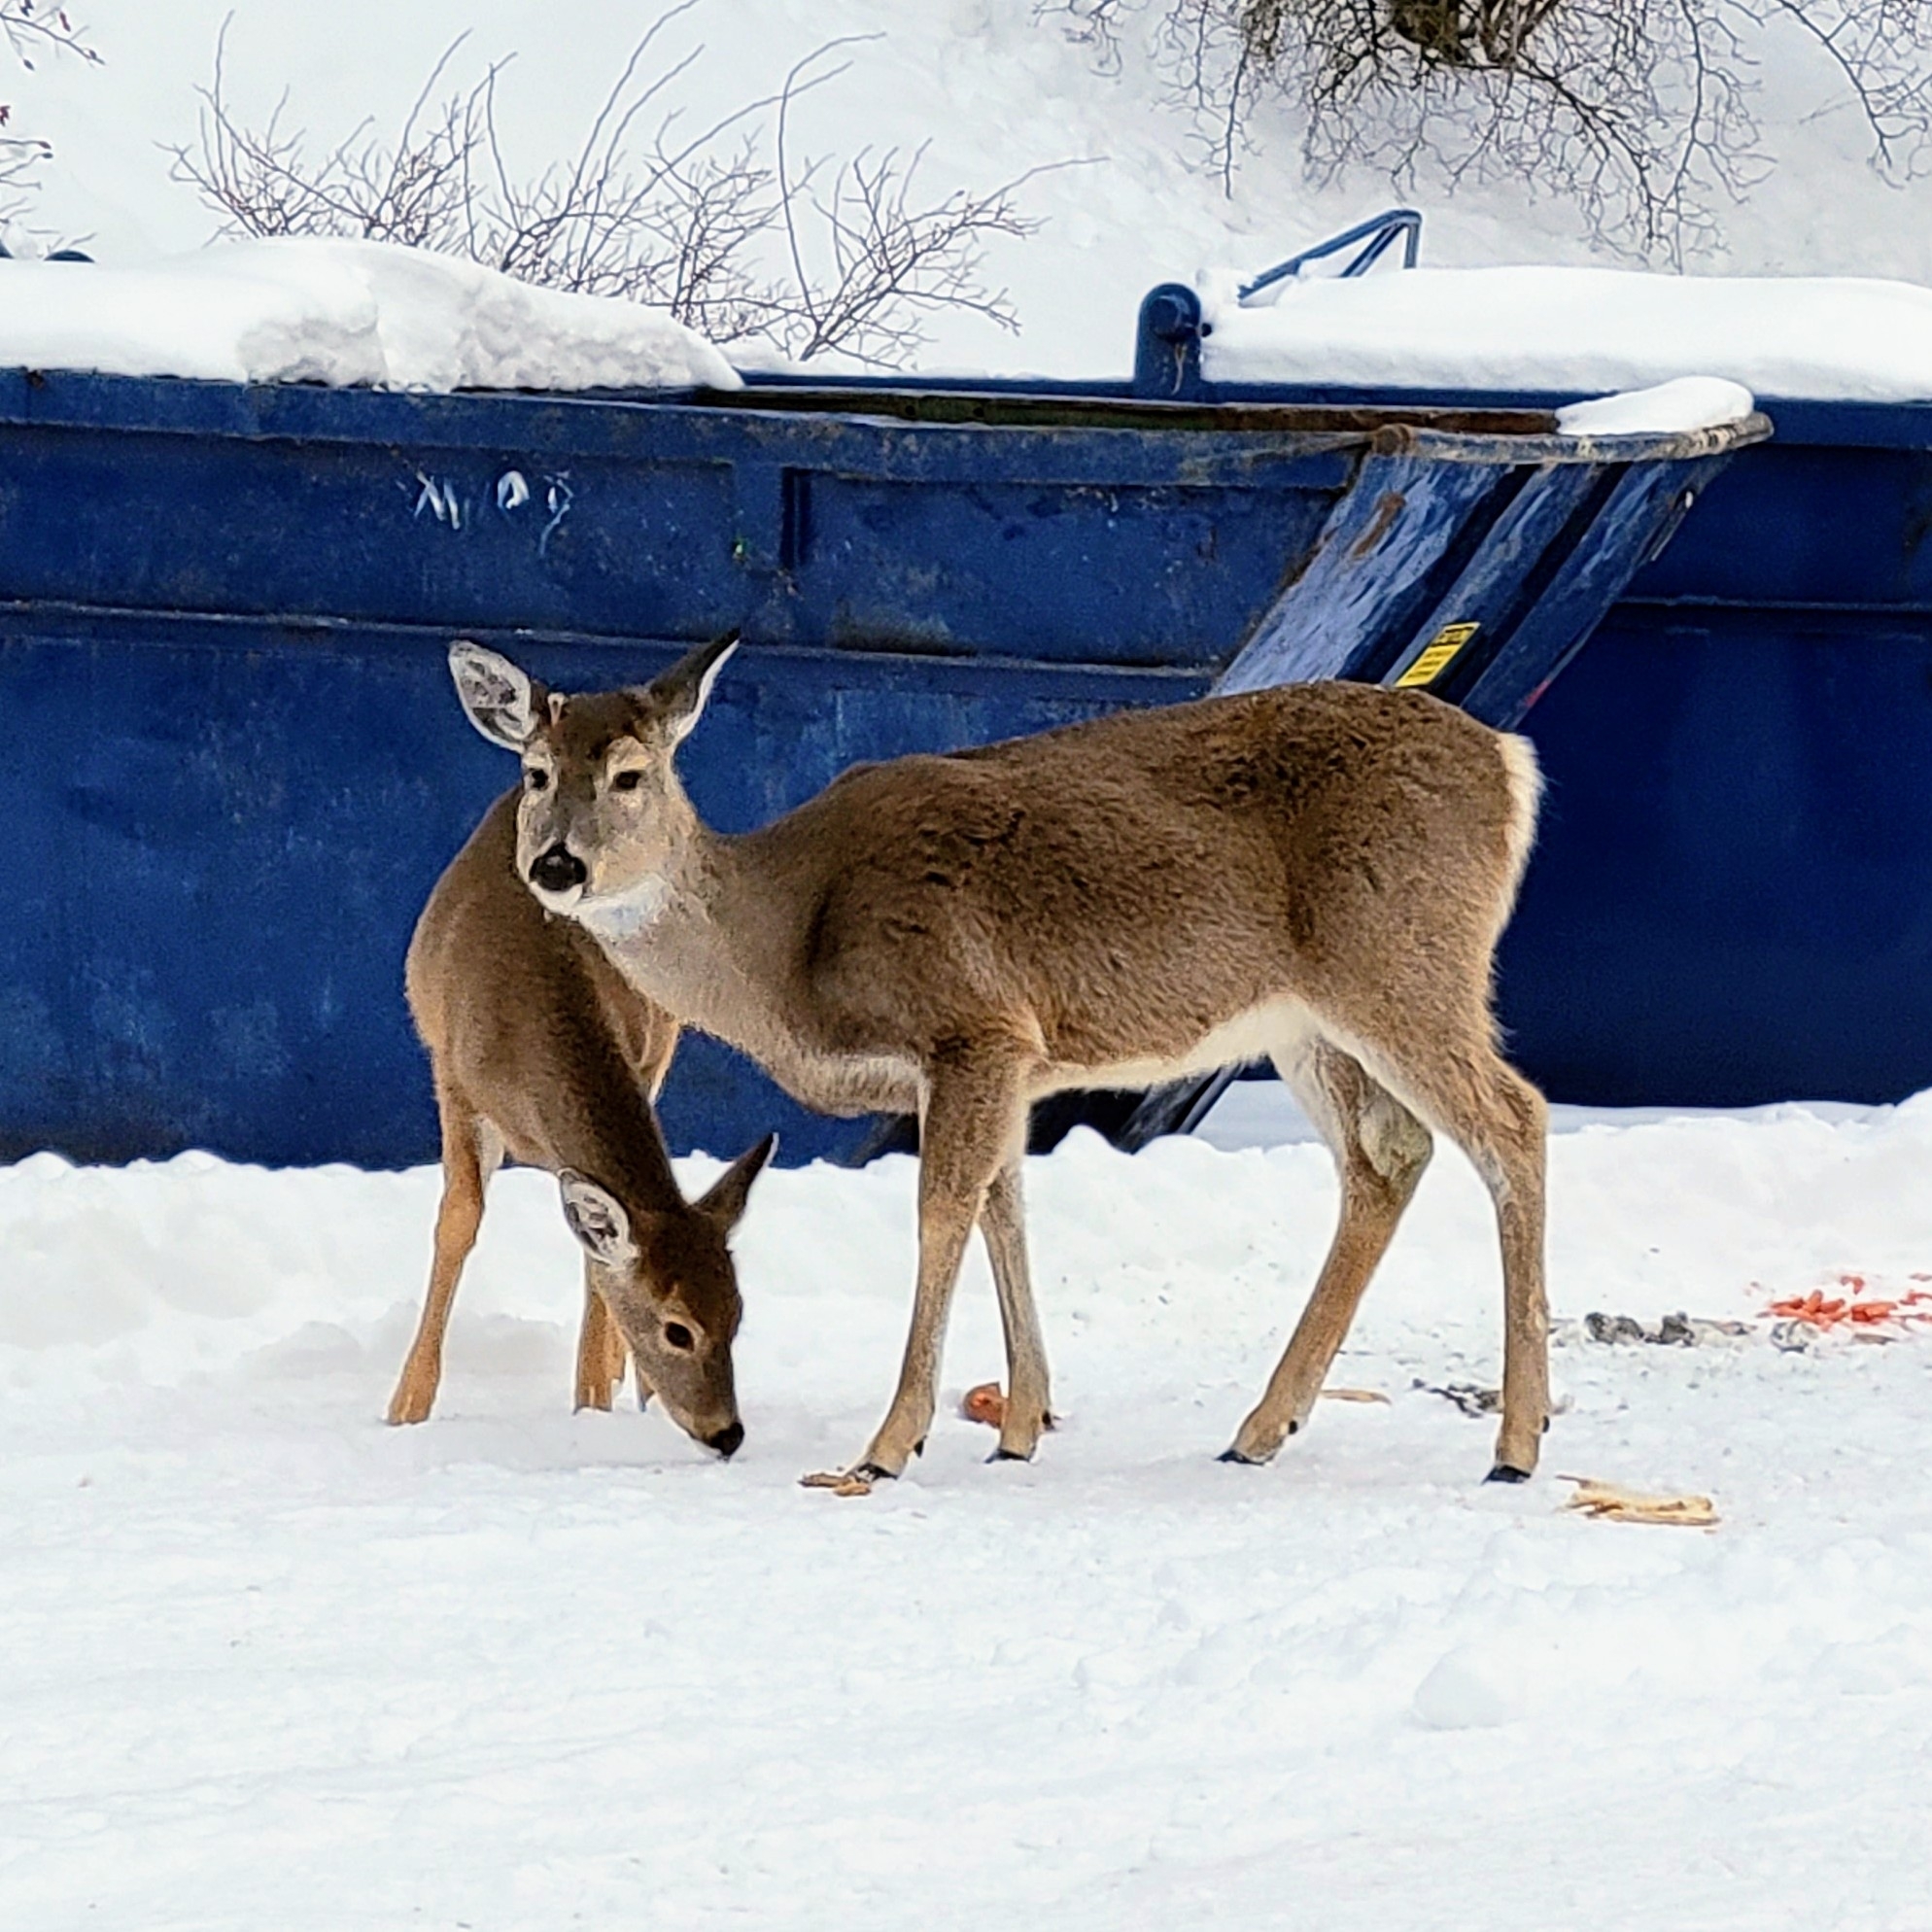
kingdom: Animalia
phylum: Chordata
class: Mammalia
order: Artiodactyla
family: Cervidae
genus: Odocoileus
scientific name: Odocoileus virginianus
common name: White-tailed deer
